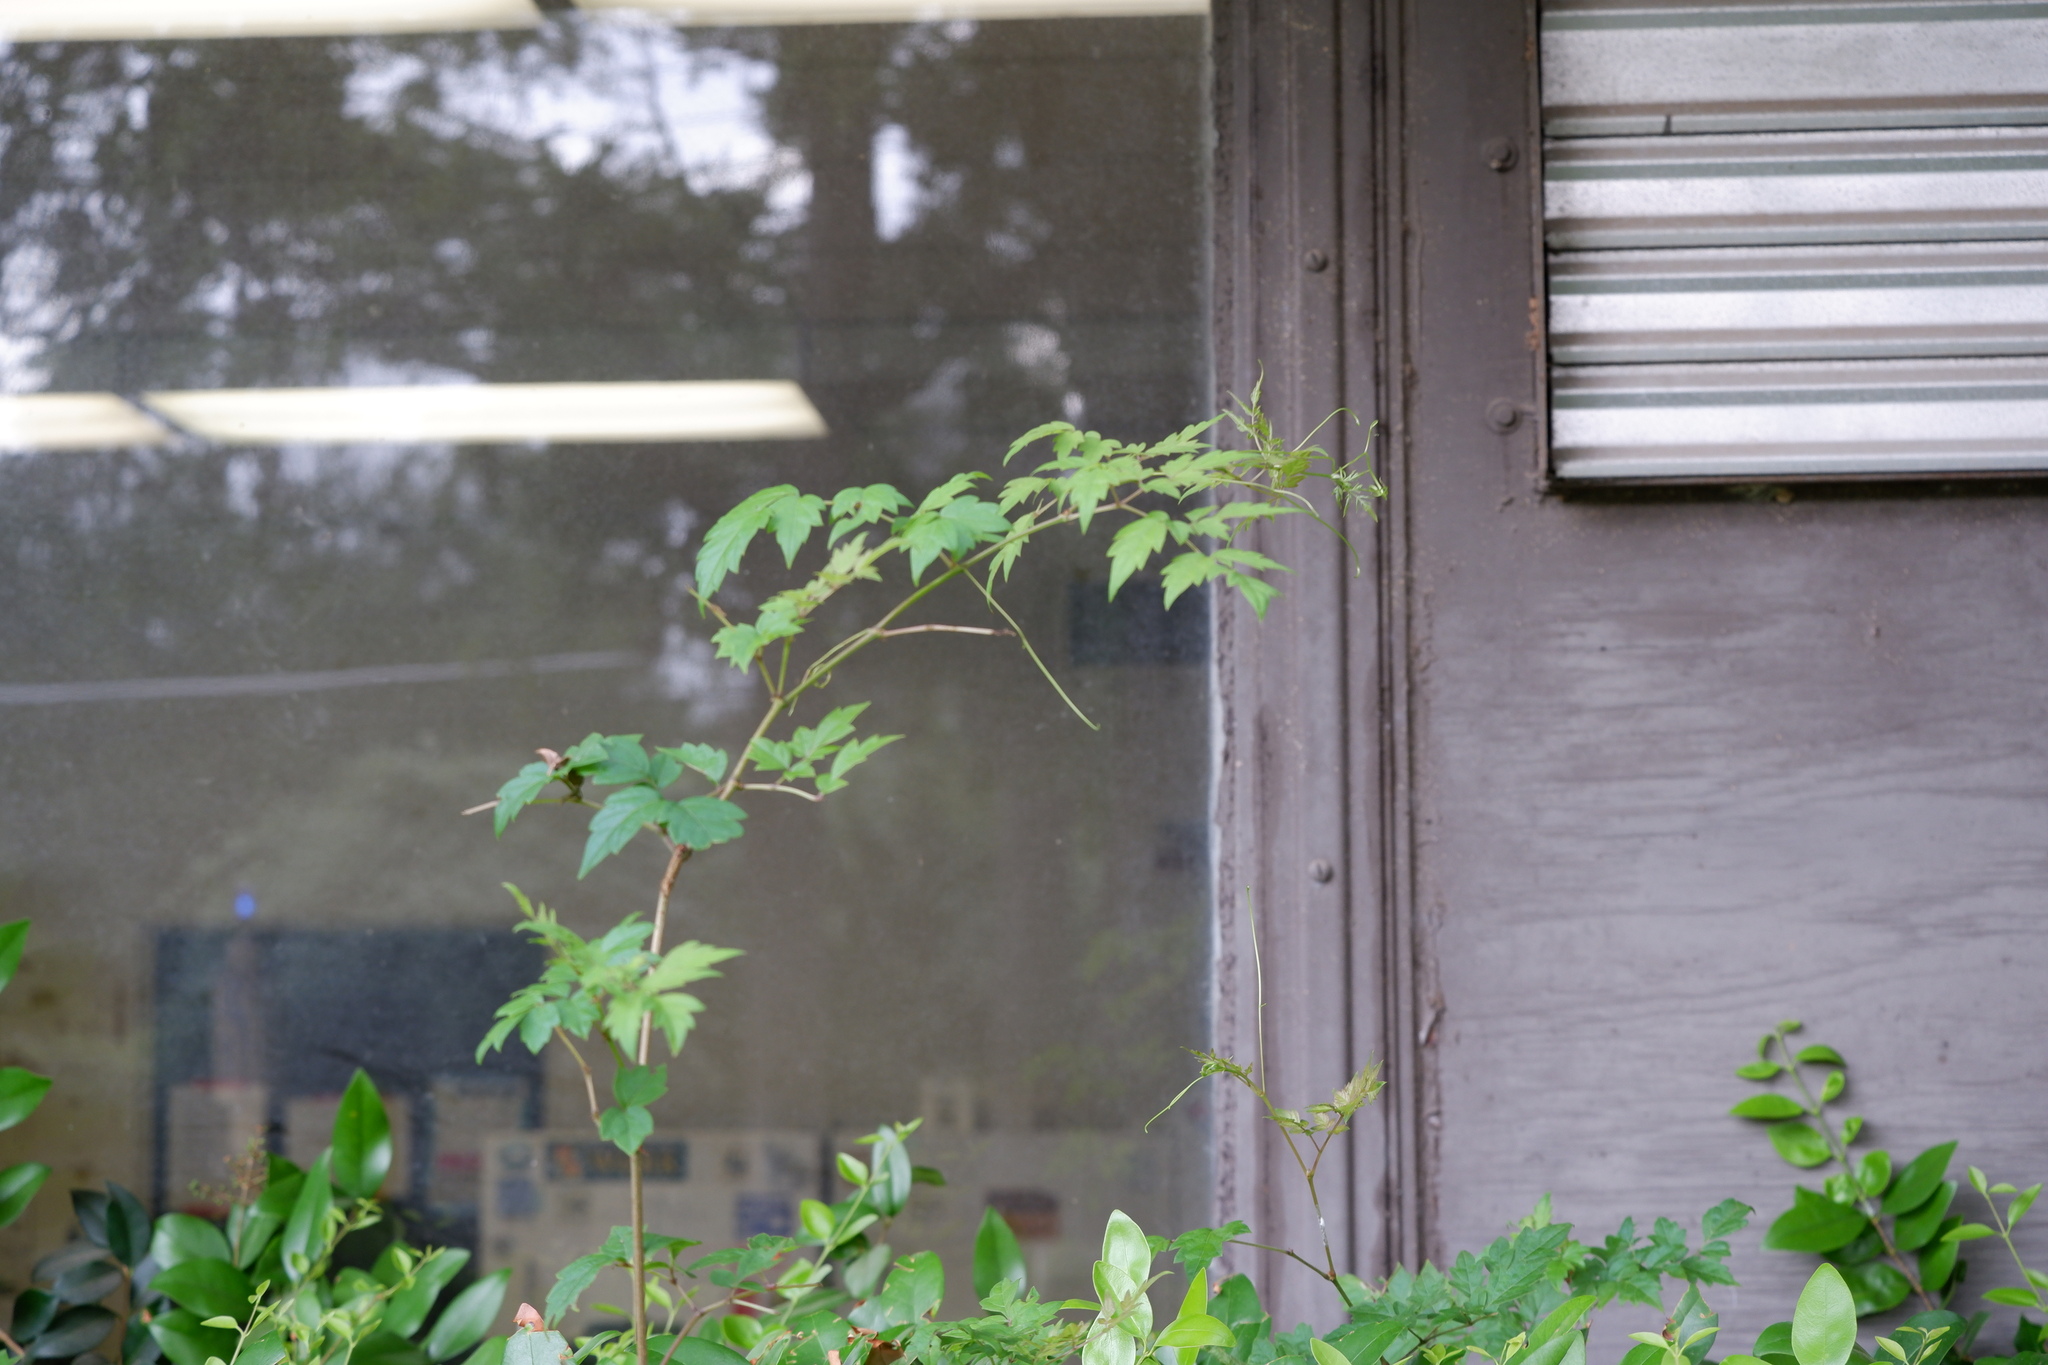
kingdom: Plantae
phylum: Tracheophyta
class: Magnoliopsida
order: Vitales
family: Vitaceae
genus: Nekemias
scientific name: Nekemias arborea
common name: Peppervine
